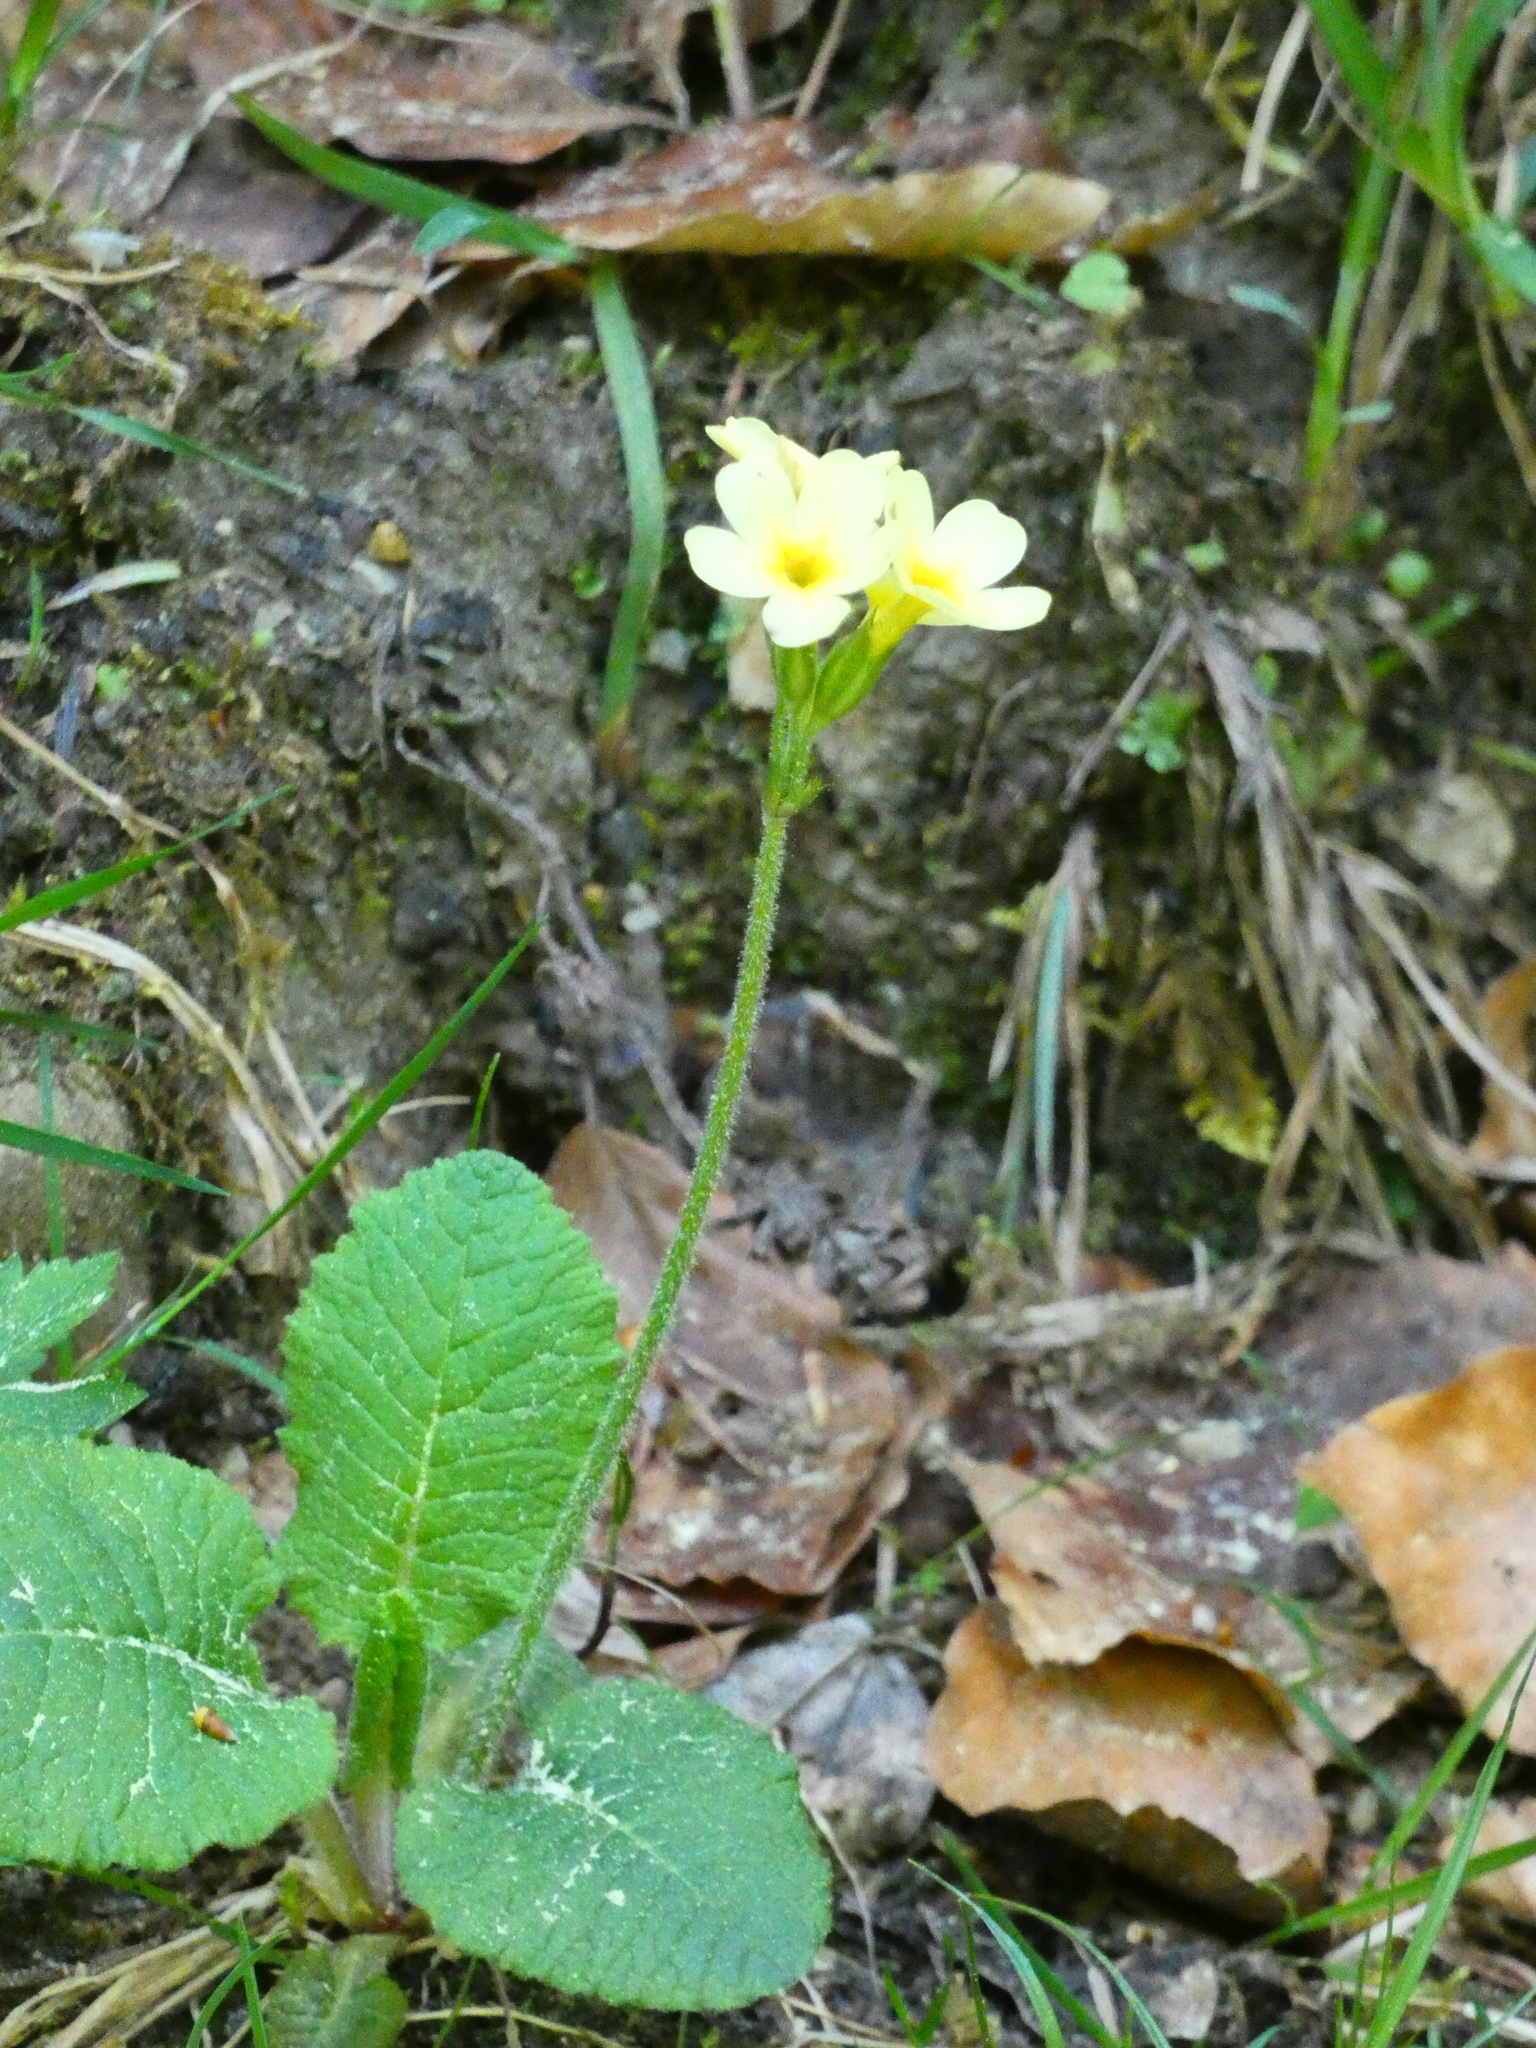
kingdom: Plantae
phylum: Tracheophyta
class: Magnoliopsida
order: Ericales
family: Primulaceae
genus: Primula
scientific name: Primula elatior
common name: Oxlip
